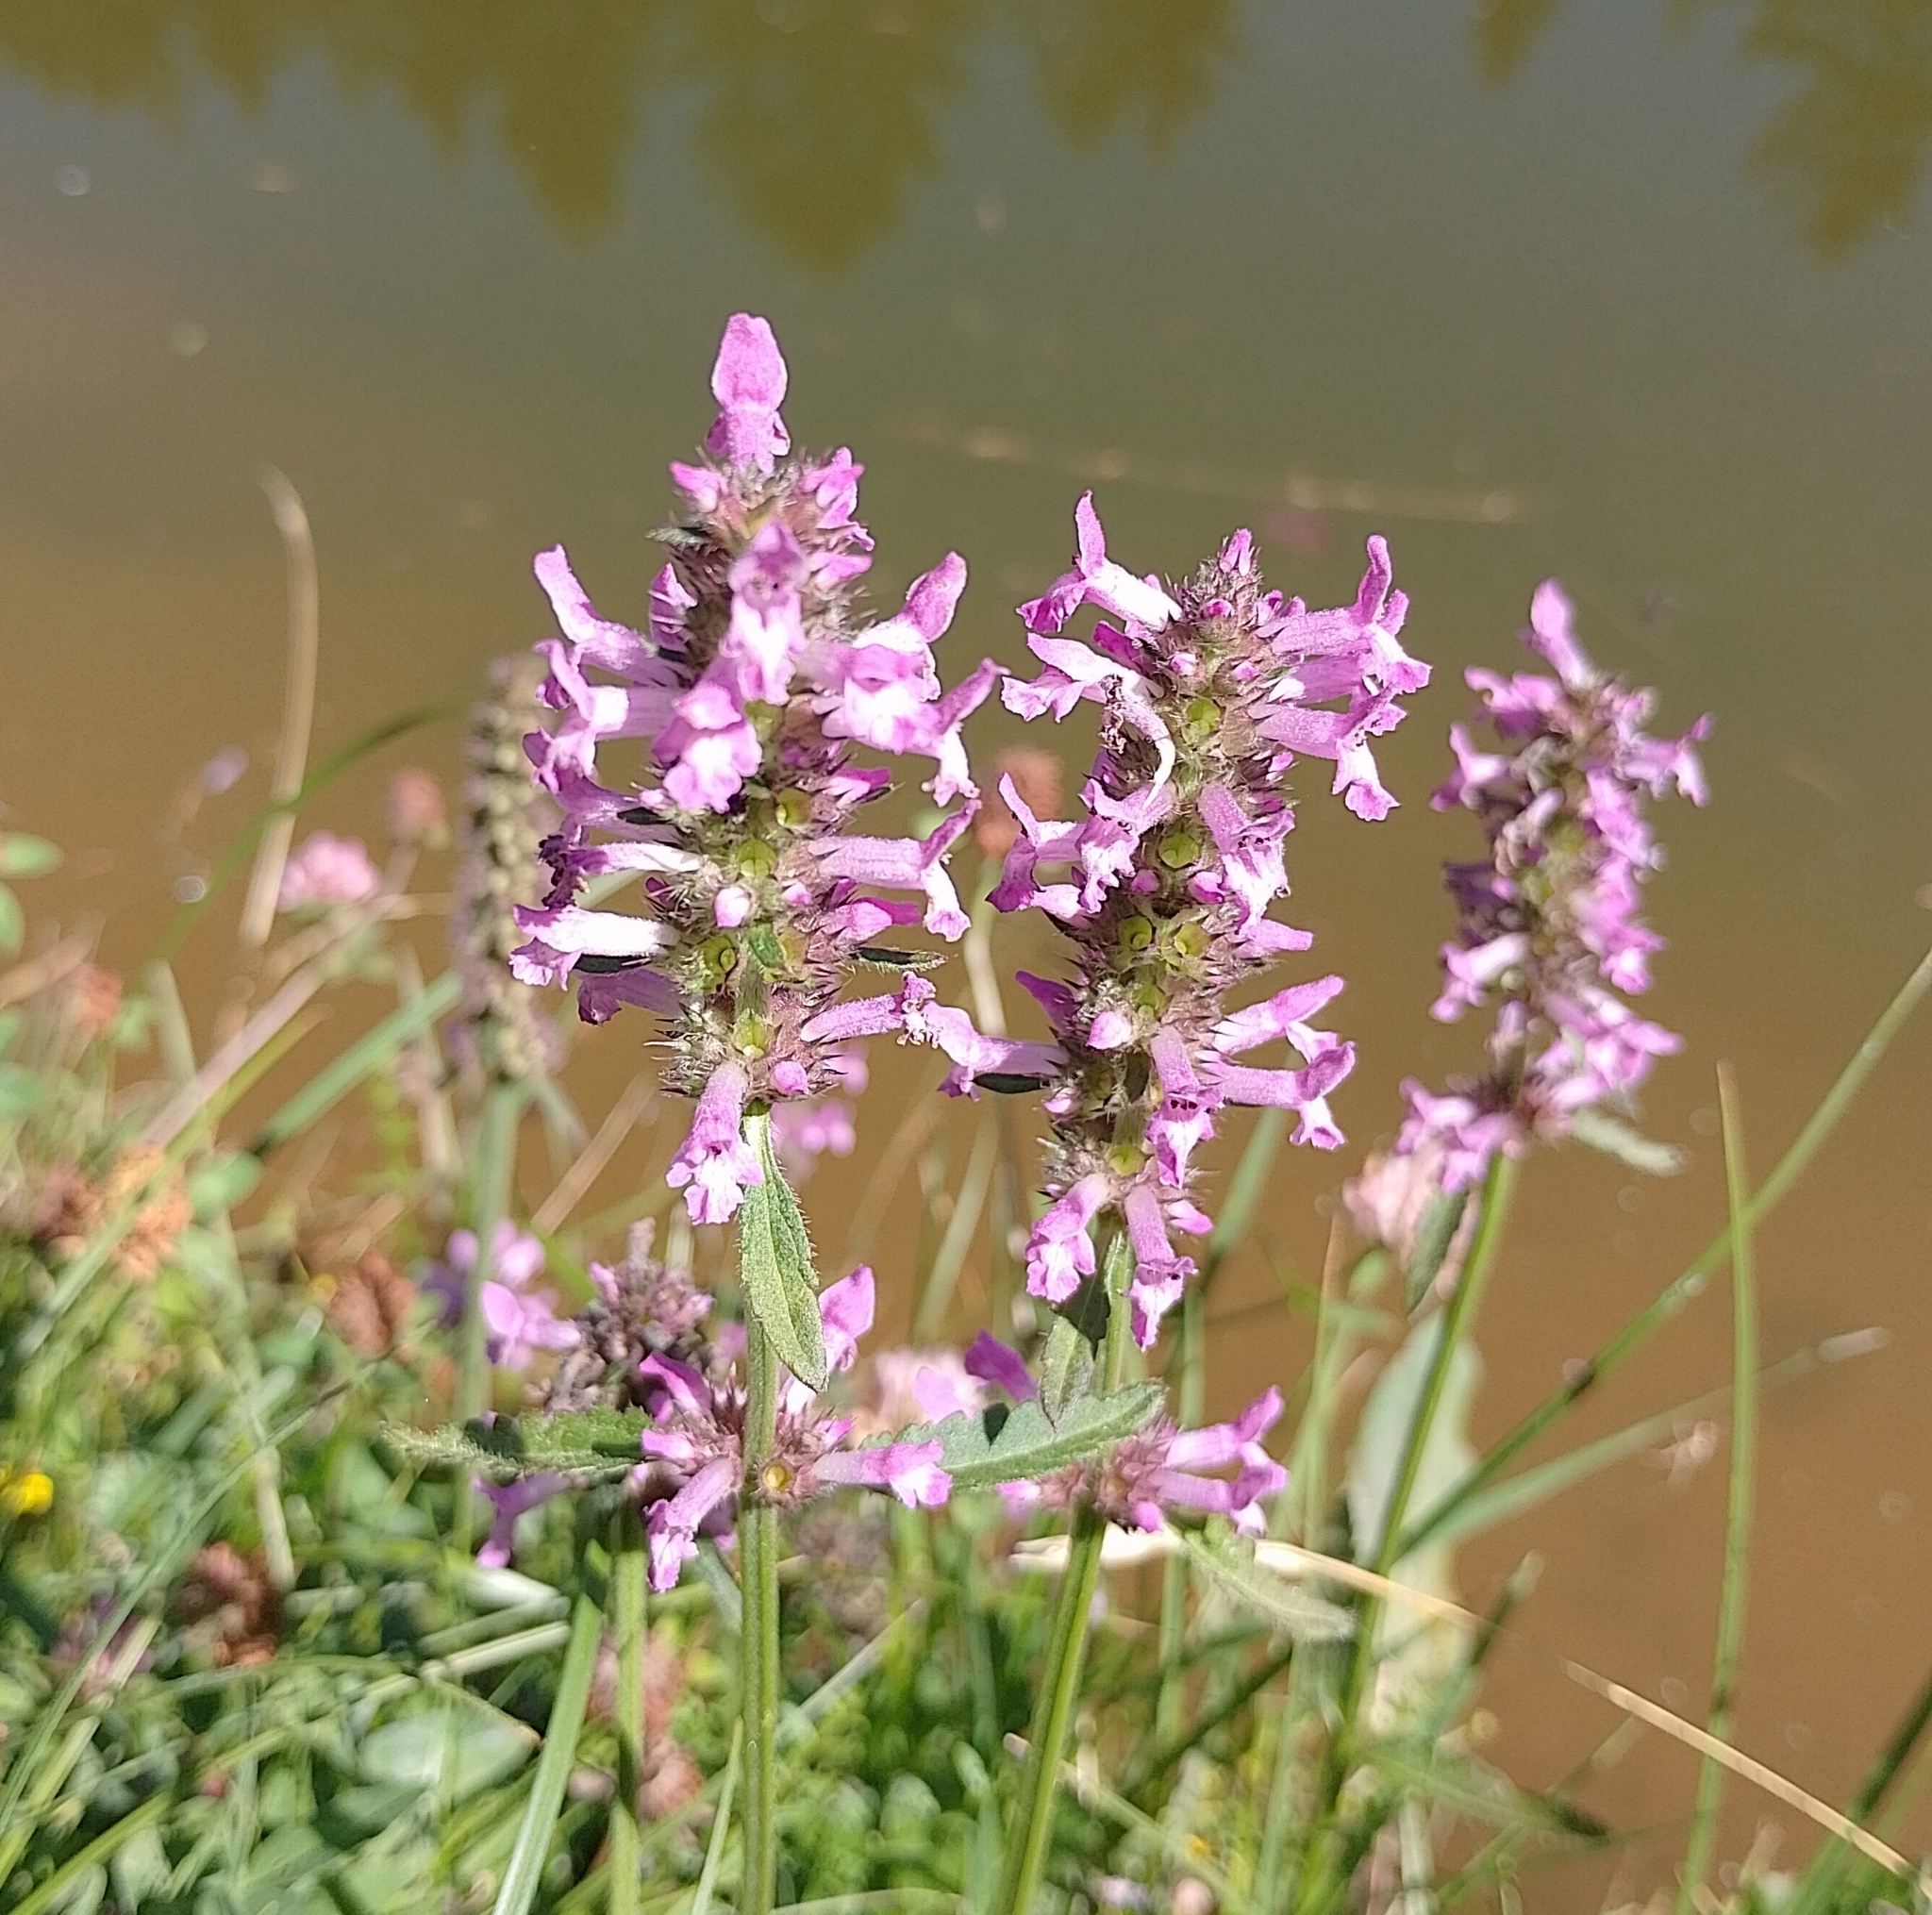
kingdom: Plantae
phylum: Tracheophyta
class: Magnoliopsida
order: Lamiales
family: Lamiaceae
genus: Betonica
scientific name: Betonica officinalis
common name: Bishop's-wort
